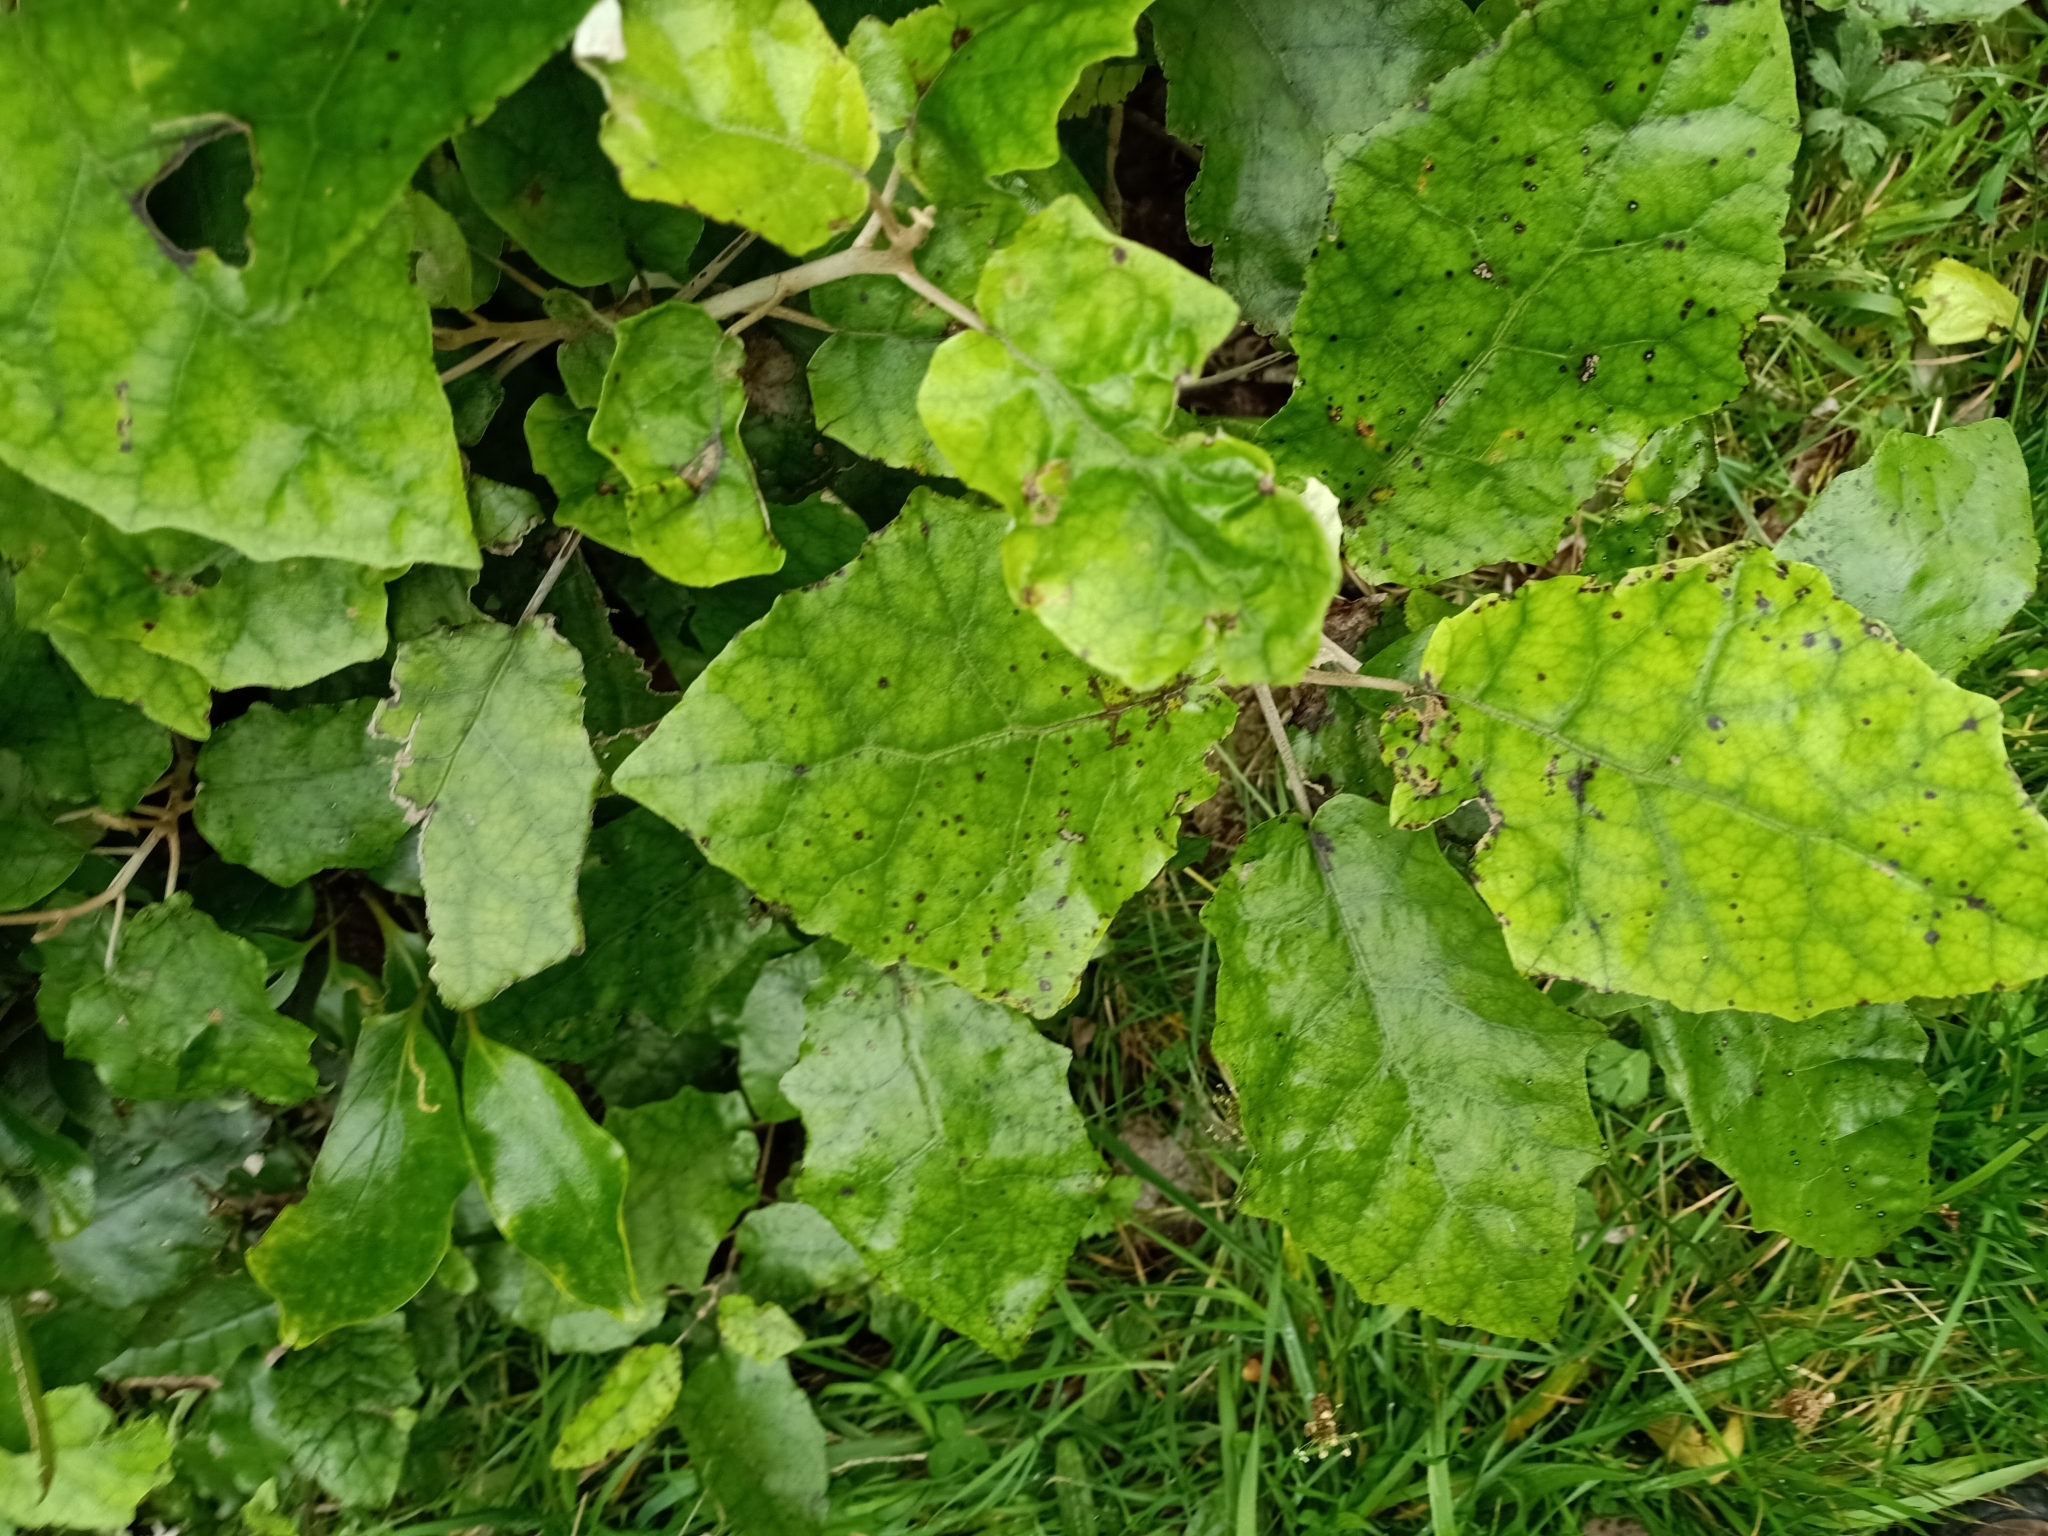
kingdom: Plantae
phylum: Tracheophyta
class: Magnoliopsida
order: Asterales
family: Asteraceae
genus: Brachyglottis
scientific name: Brachyglottis repanda
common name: Hedge ragwort
